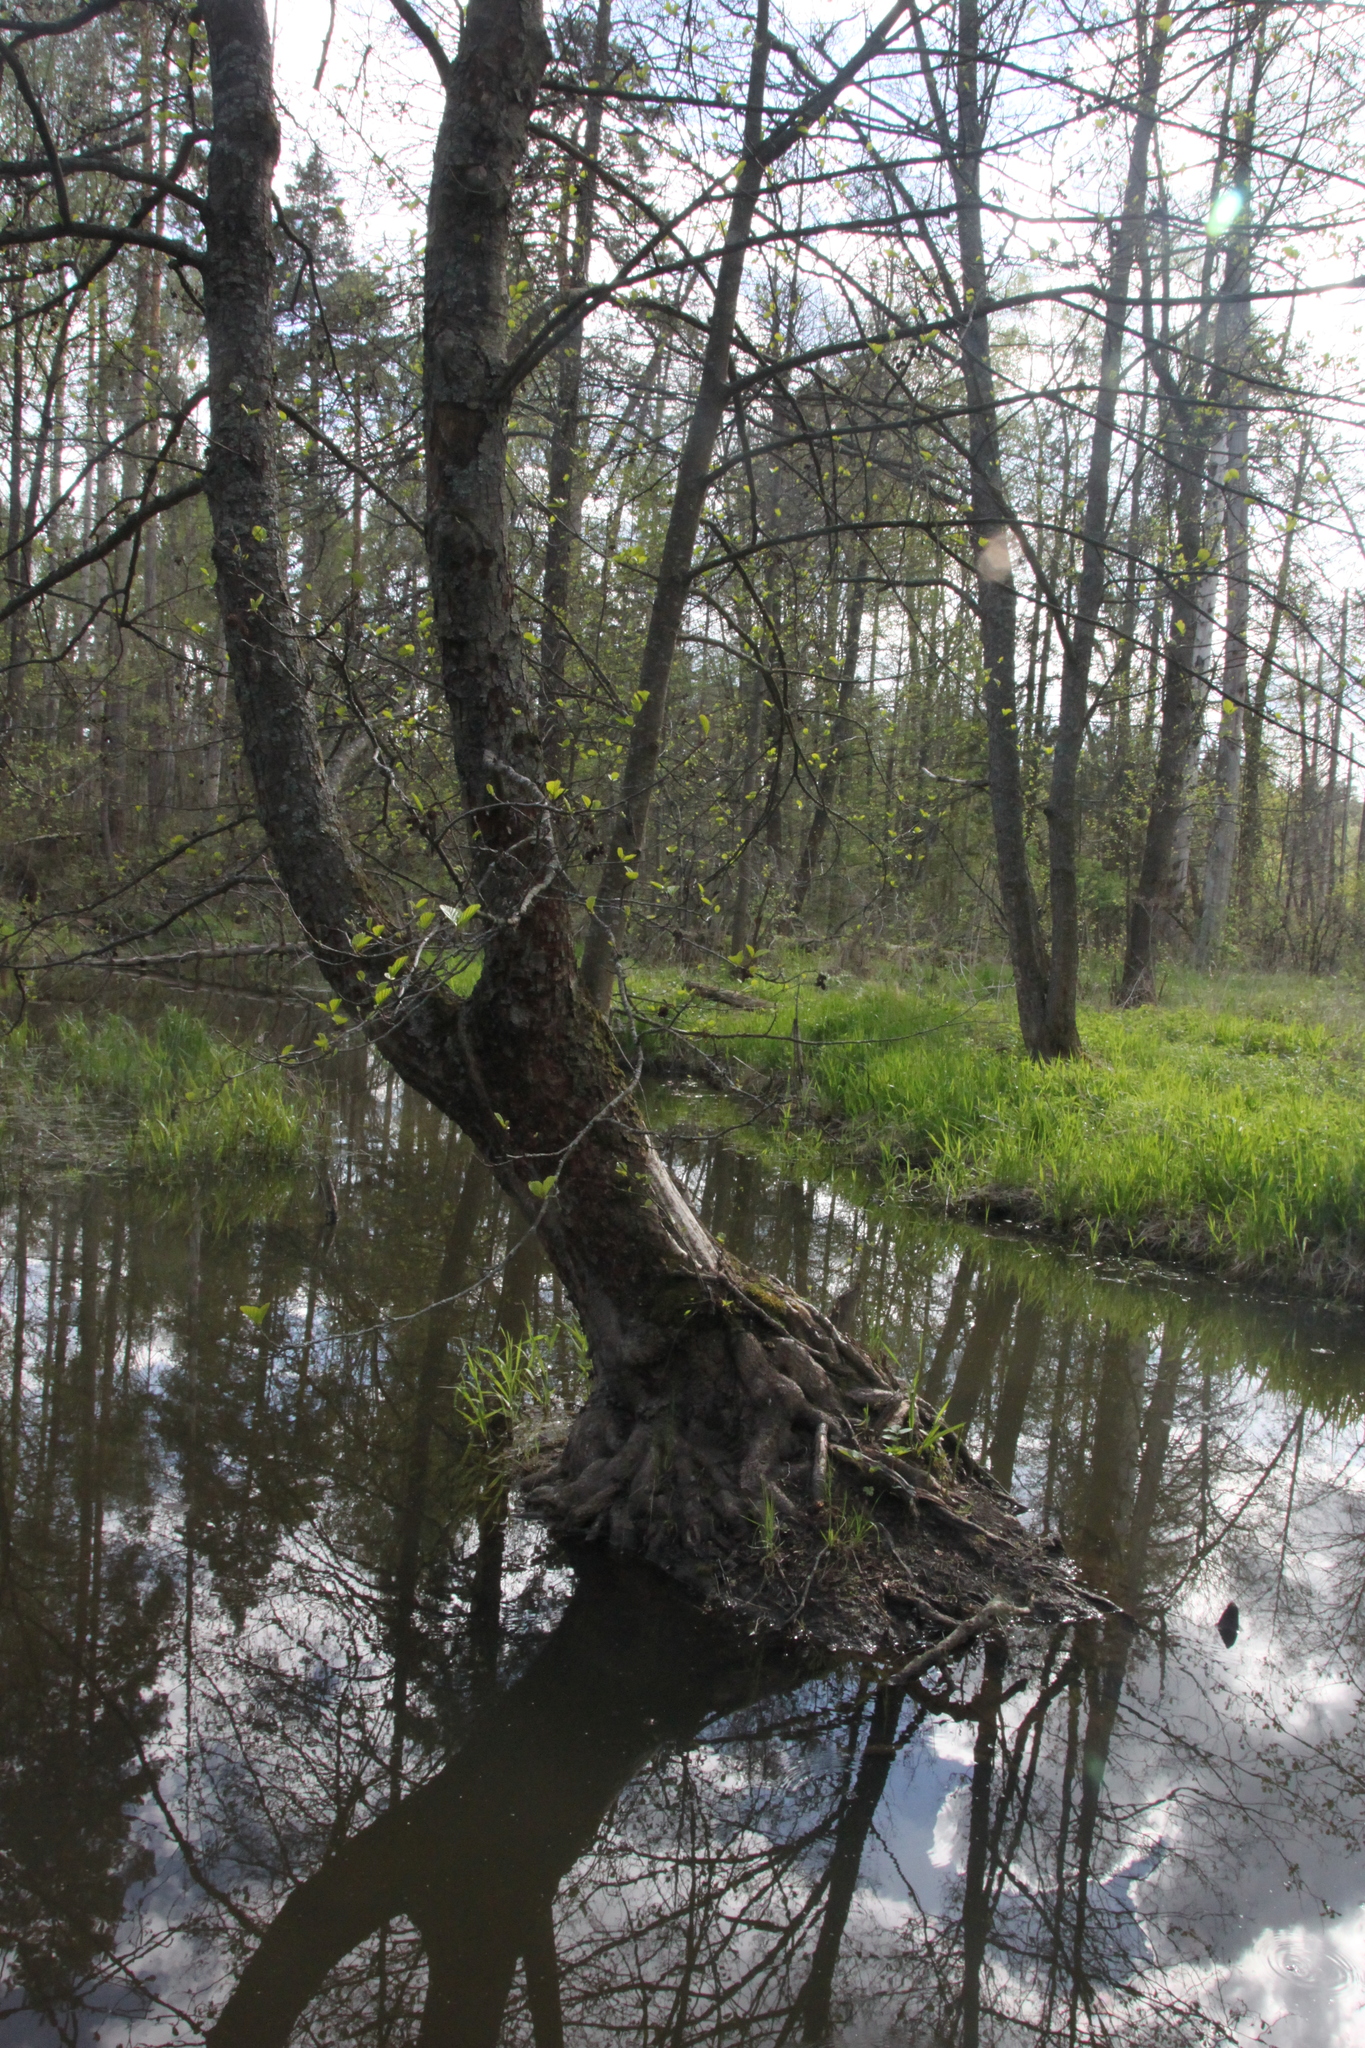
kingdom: Plantae
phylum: Tracheophyta
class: Magnoliopsida
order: Fagales
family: Betulaceae
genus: Alnus
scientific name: Alnus glutinosa
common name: Black alder
